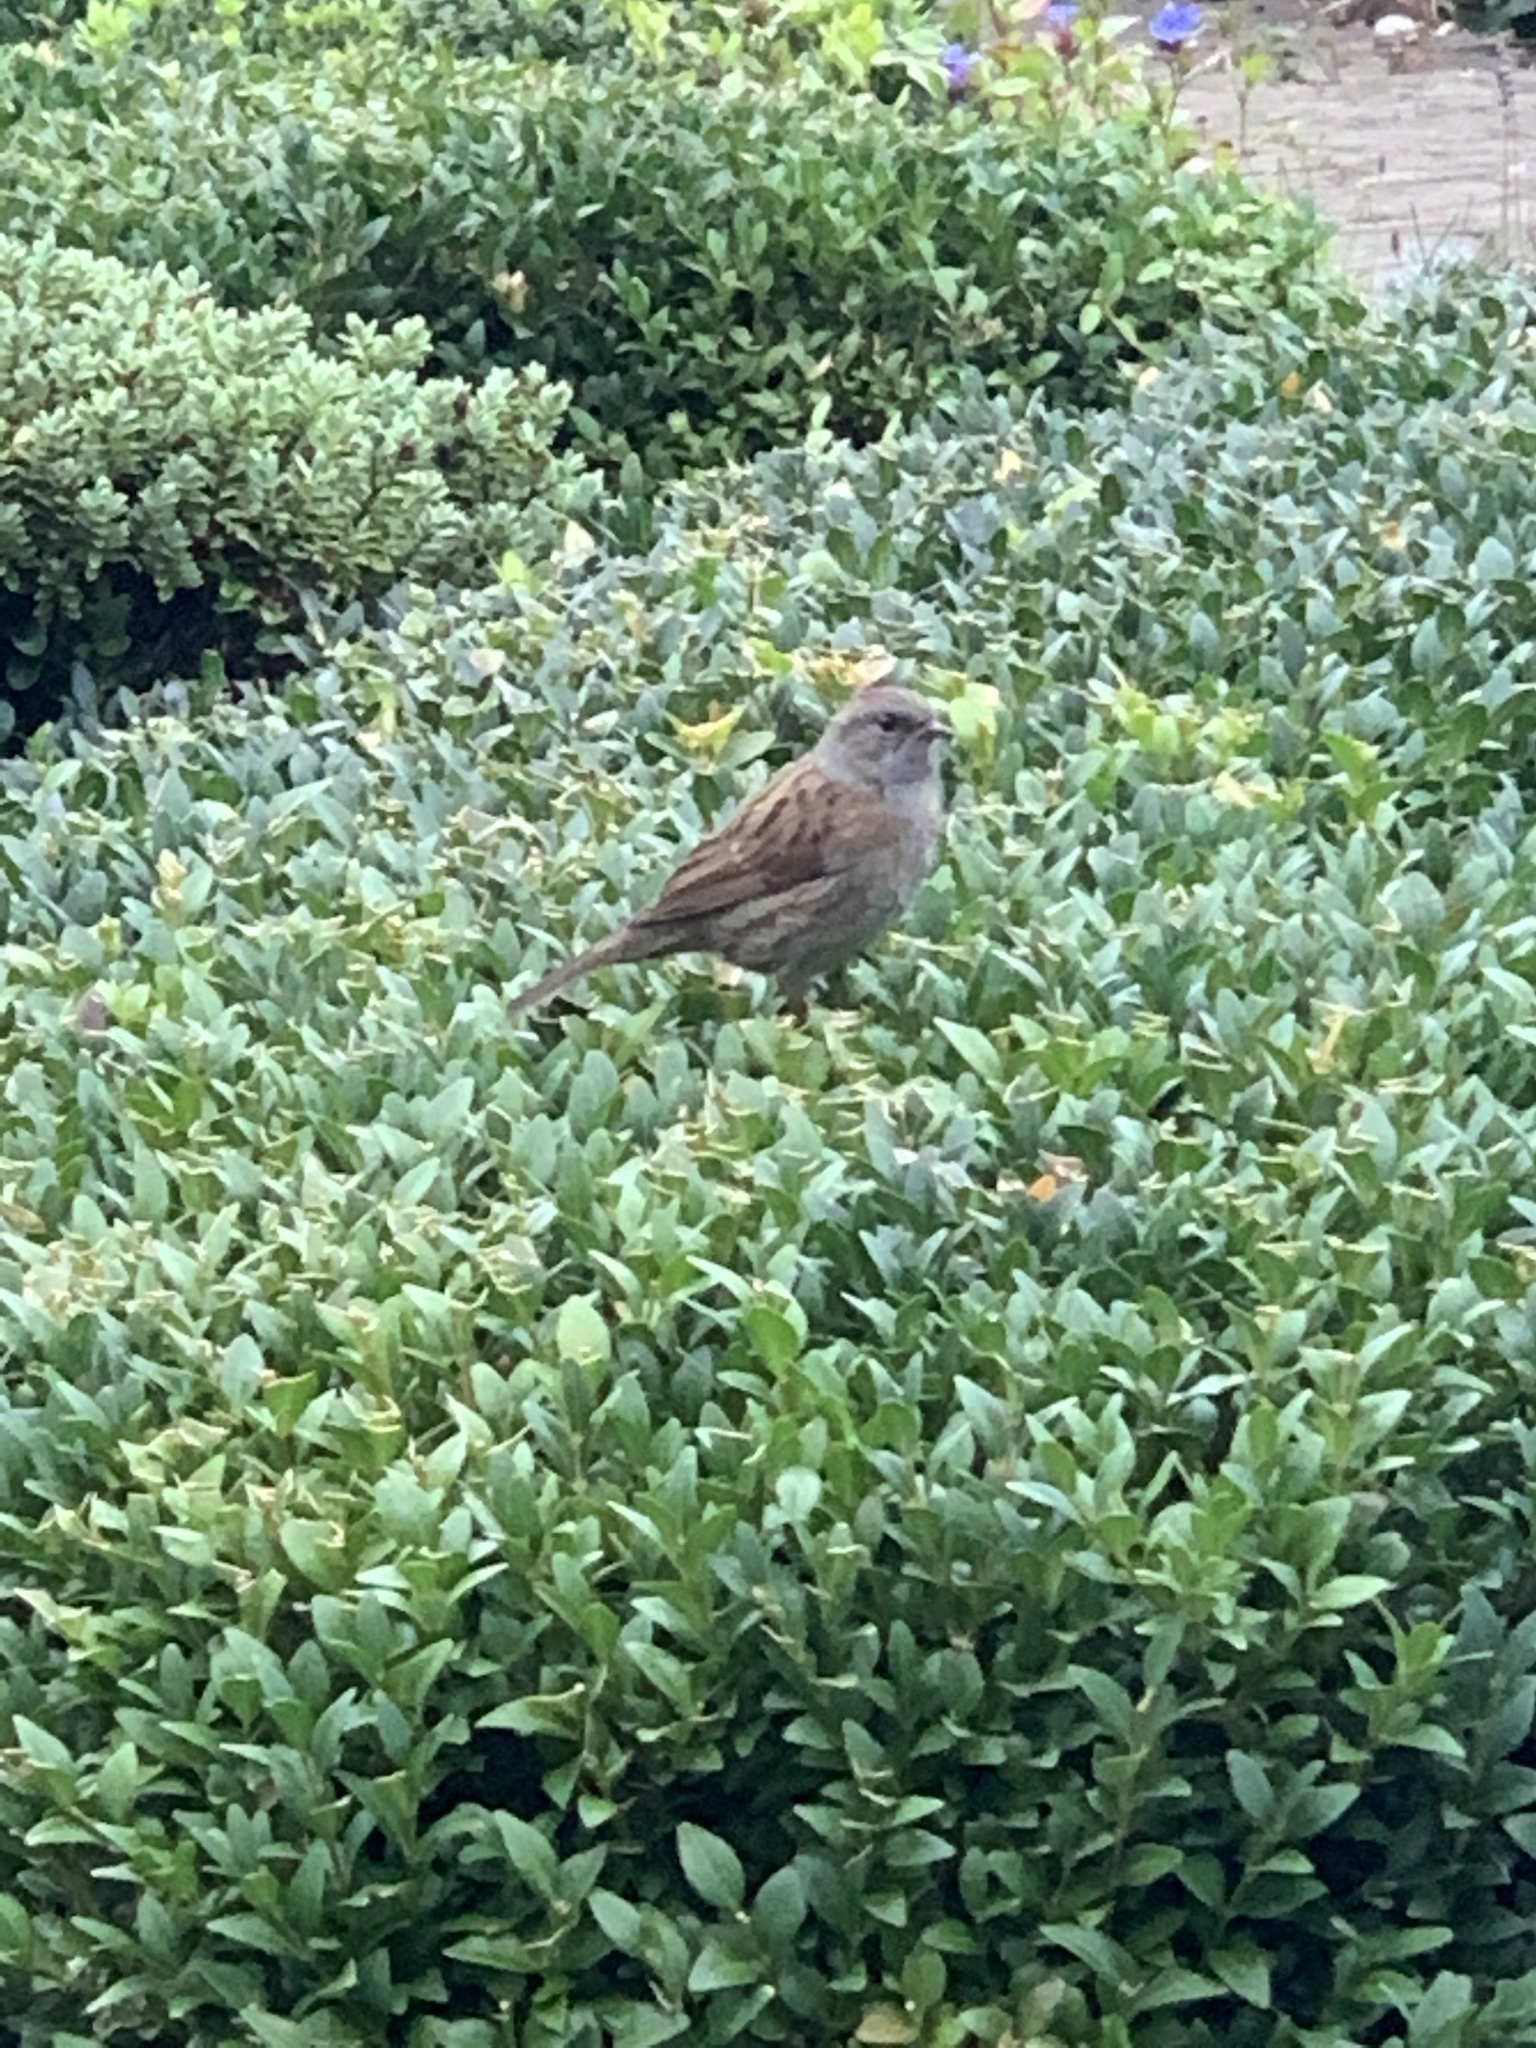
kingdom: Animalia
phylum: Chordata
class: Aves
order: Passeriformes
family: Prunellidae
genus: Prunella
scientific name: Prunella modularis
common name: Dunnock
